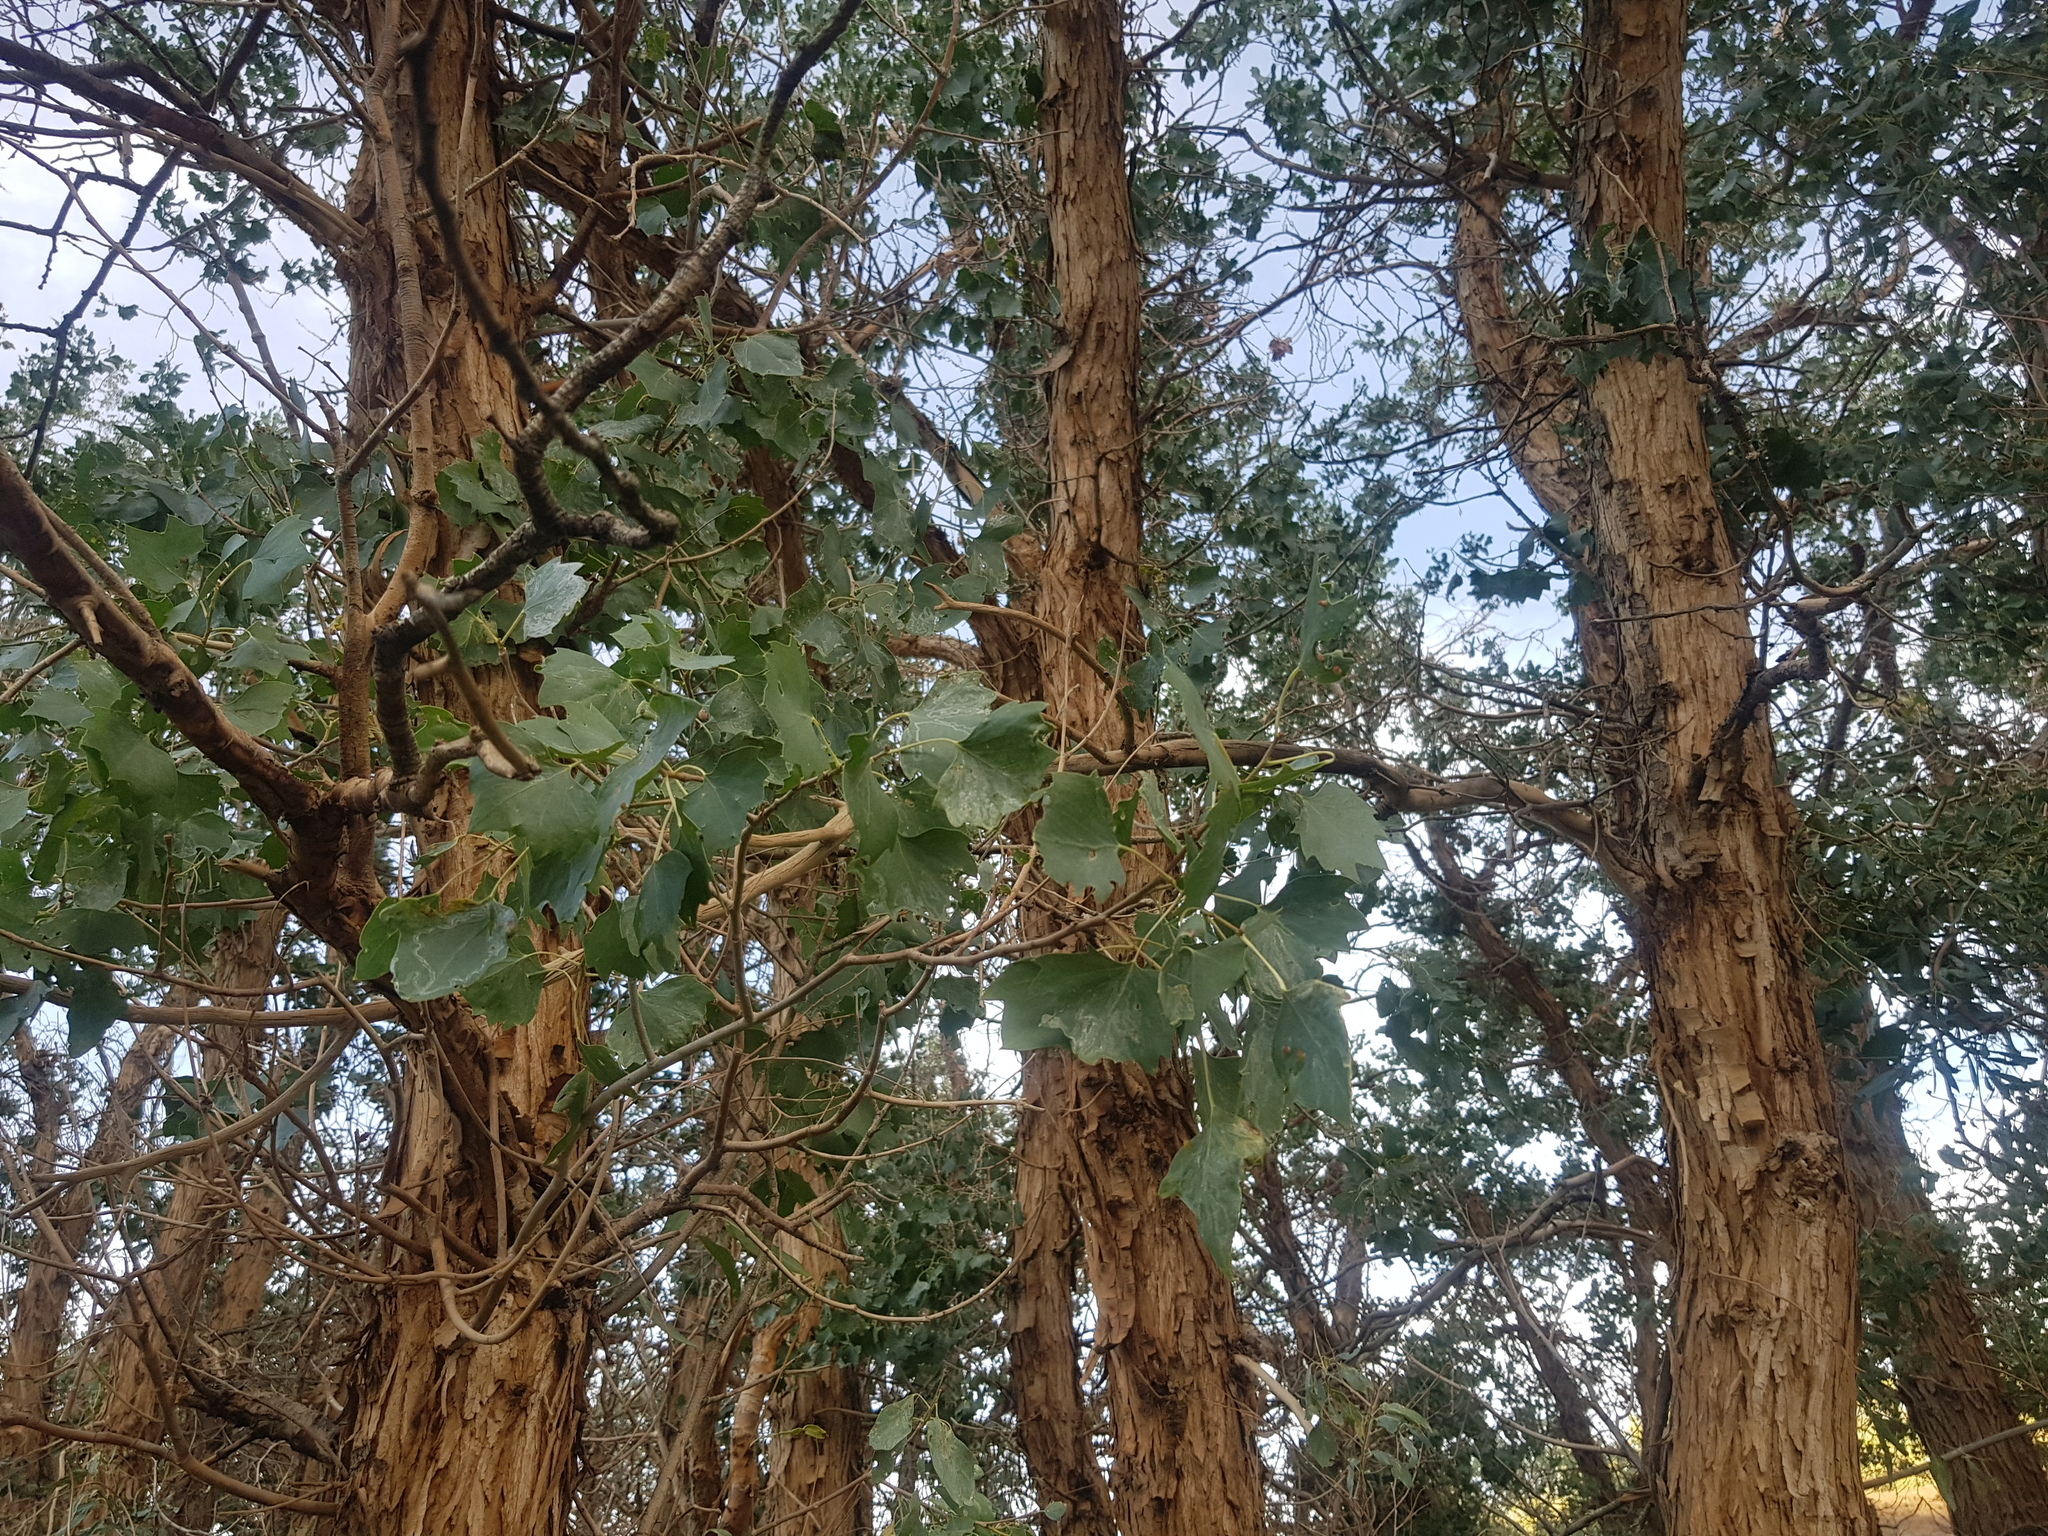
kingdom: Plantae
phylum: Tracheophyta
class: Magnoliopsida
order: Malpighiales
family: Salicaceae
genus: Populus
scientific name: Populus euphratica
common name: Euphrates poplar
